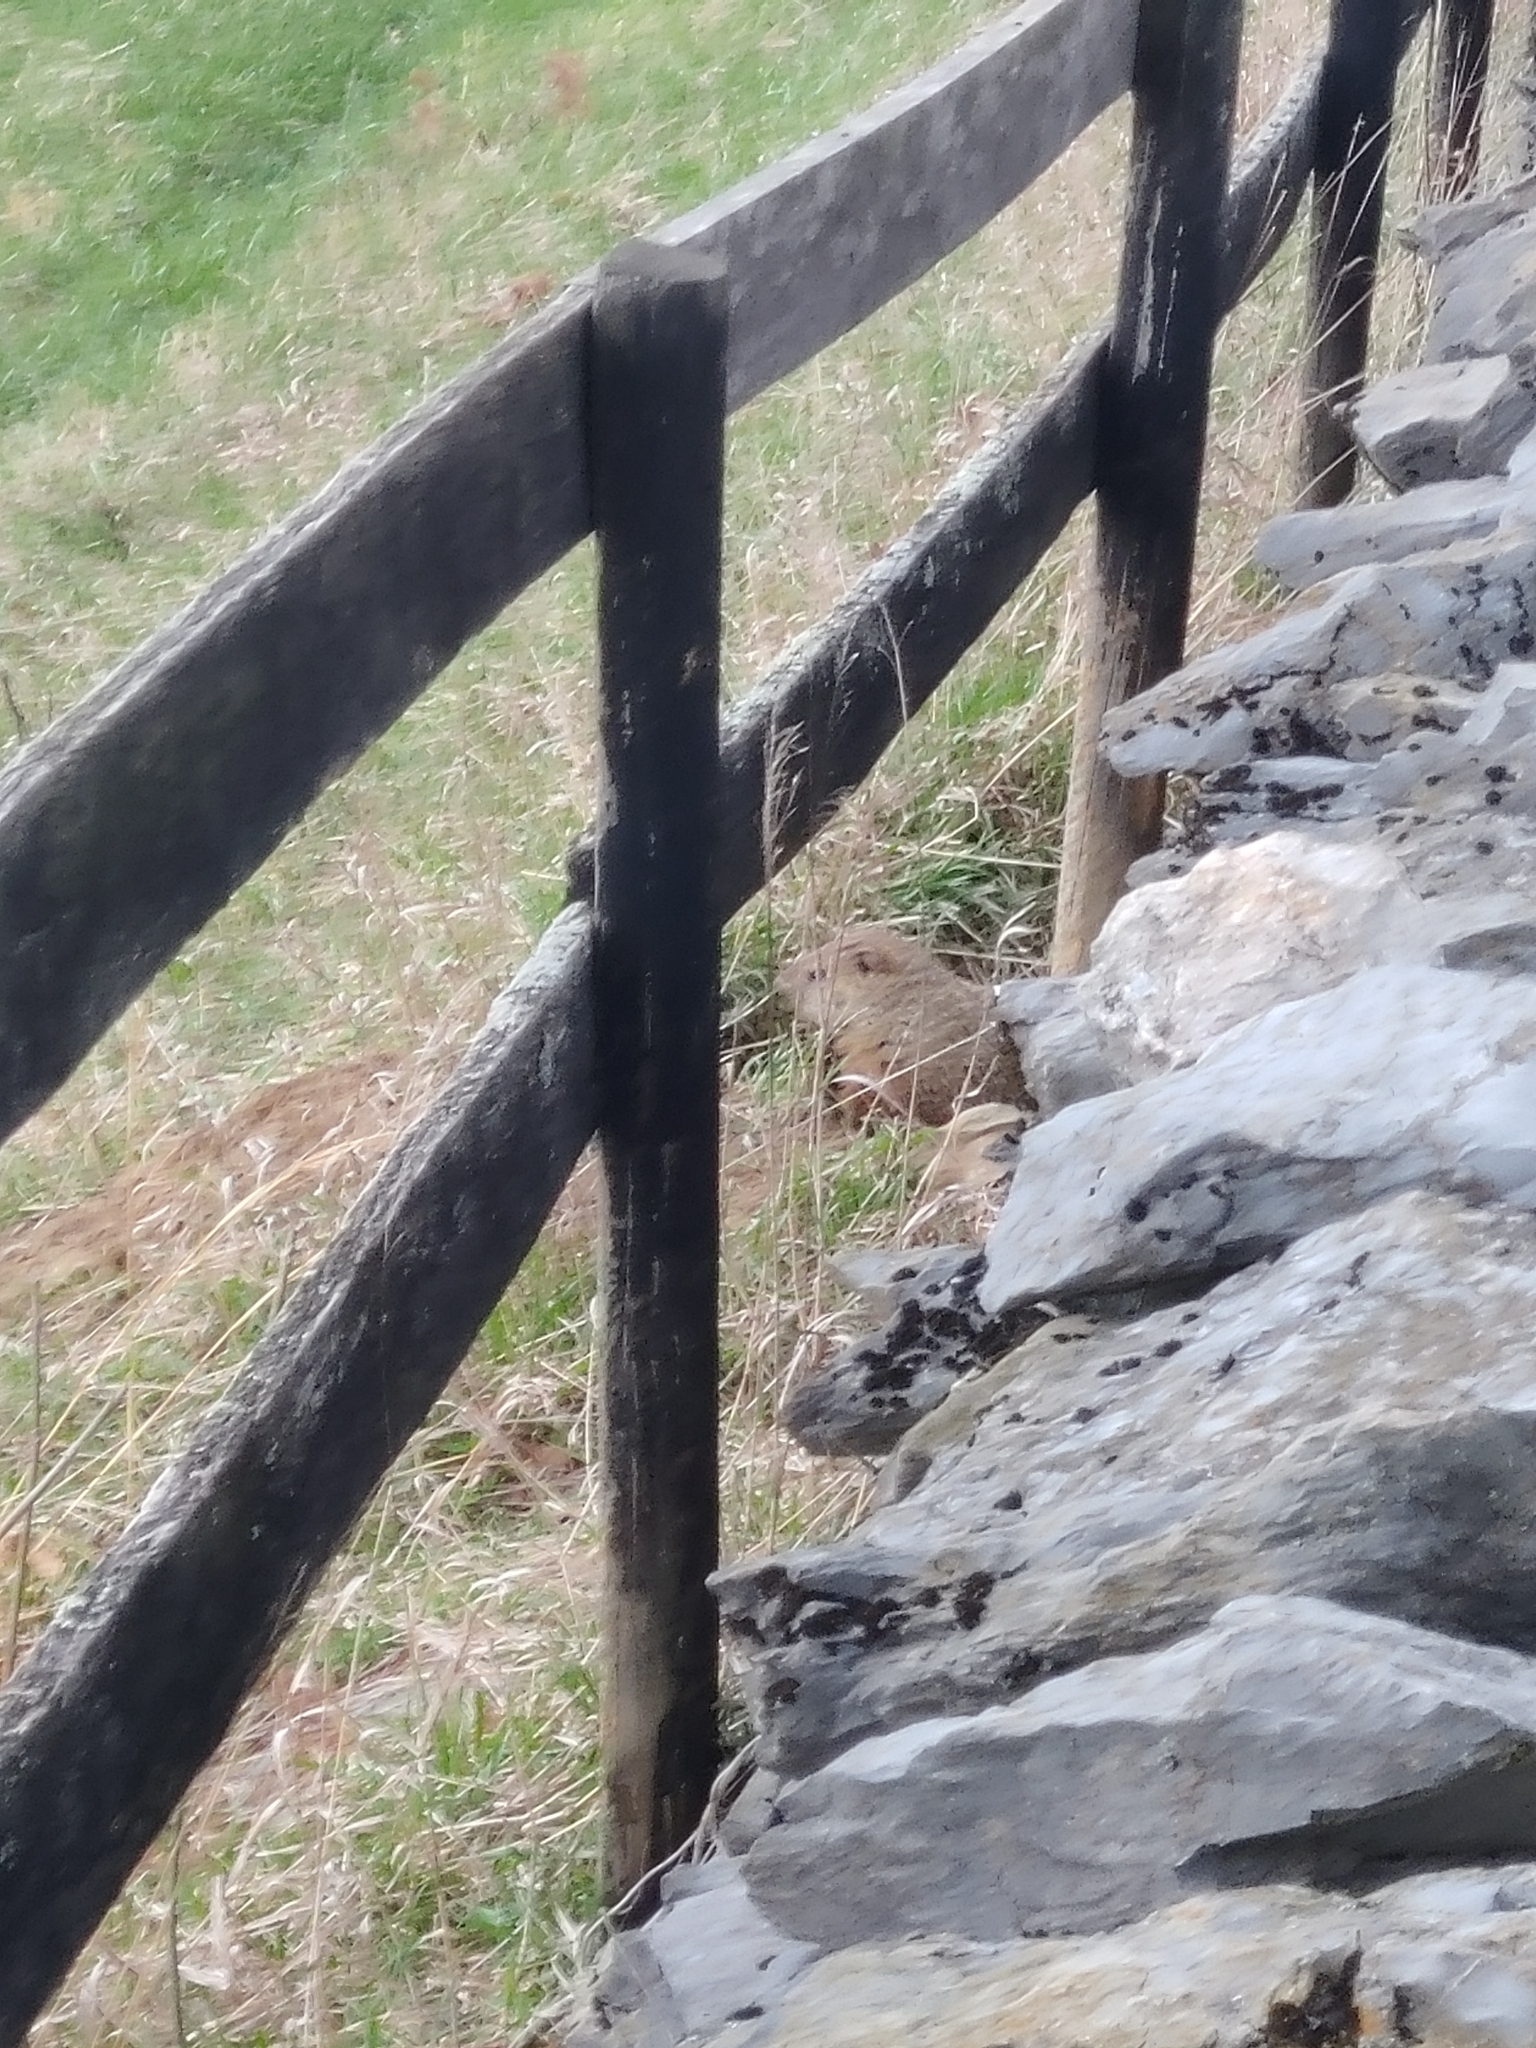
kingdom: Animalia
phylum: Chordata
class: Mammalia
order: Rodentia
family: Sciuridae
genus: Marmota
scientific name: Marmota monax
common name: Groundhog
